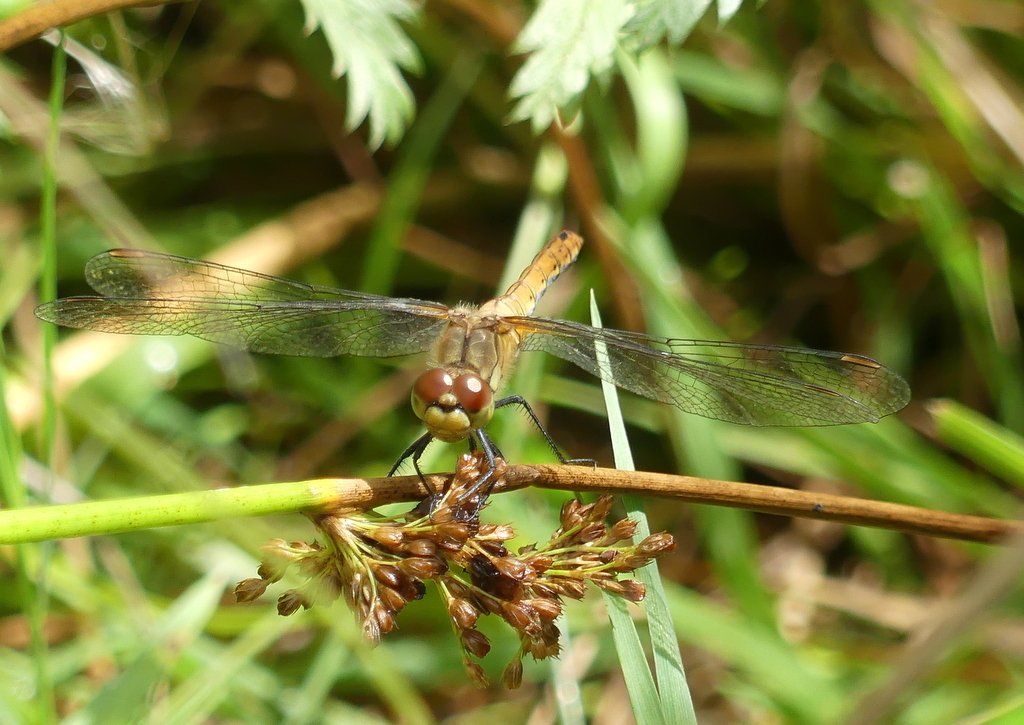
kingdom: Animalia
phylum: Arthropoda
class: Insecta
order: Odonata
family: Libellulidae
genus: Sympetrum
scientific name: Sympetrum sanguineum
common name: Ruddy darter
